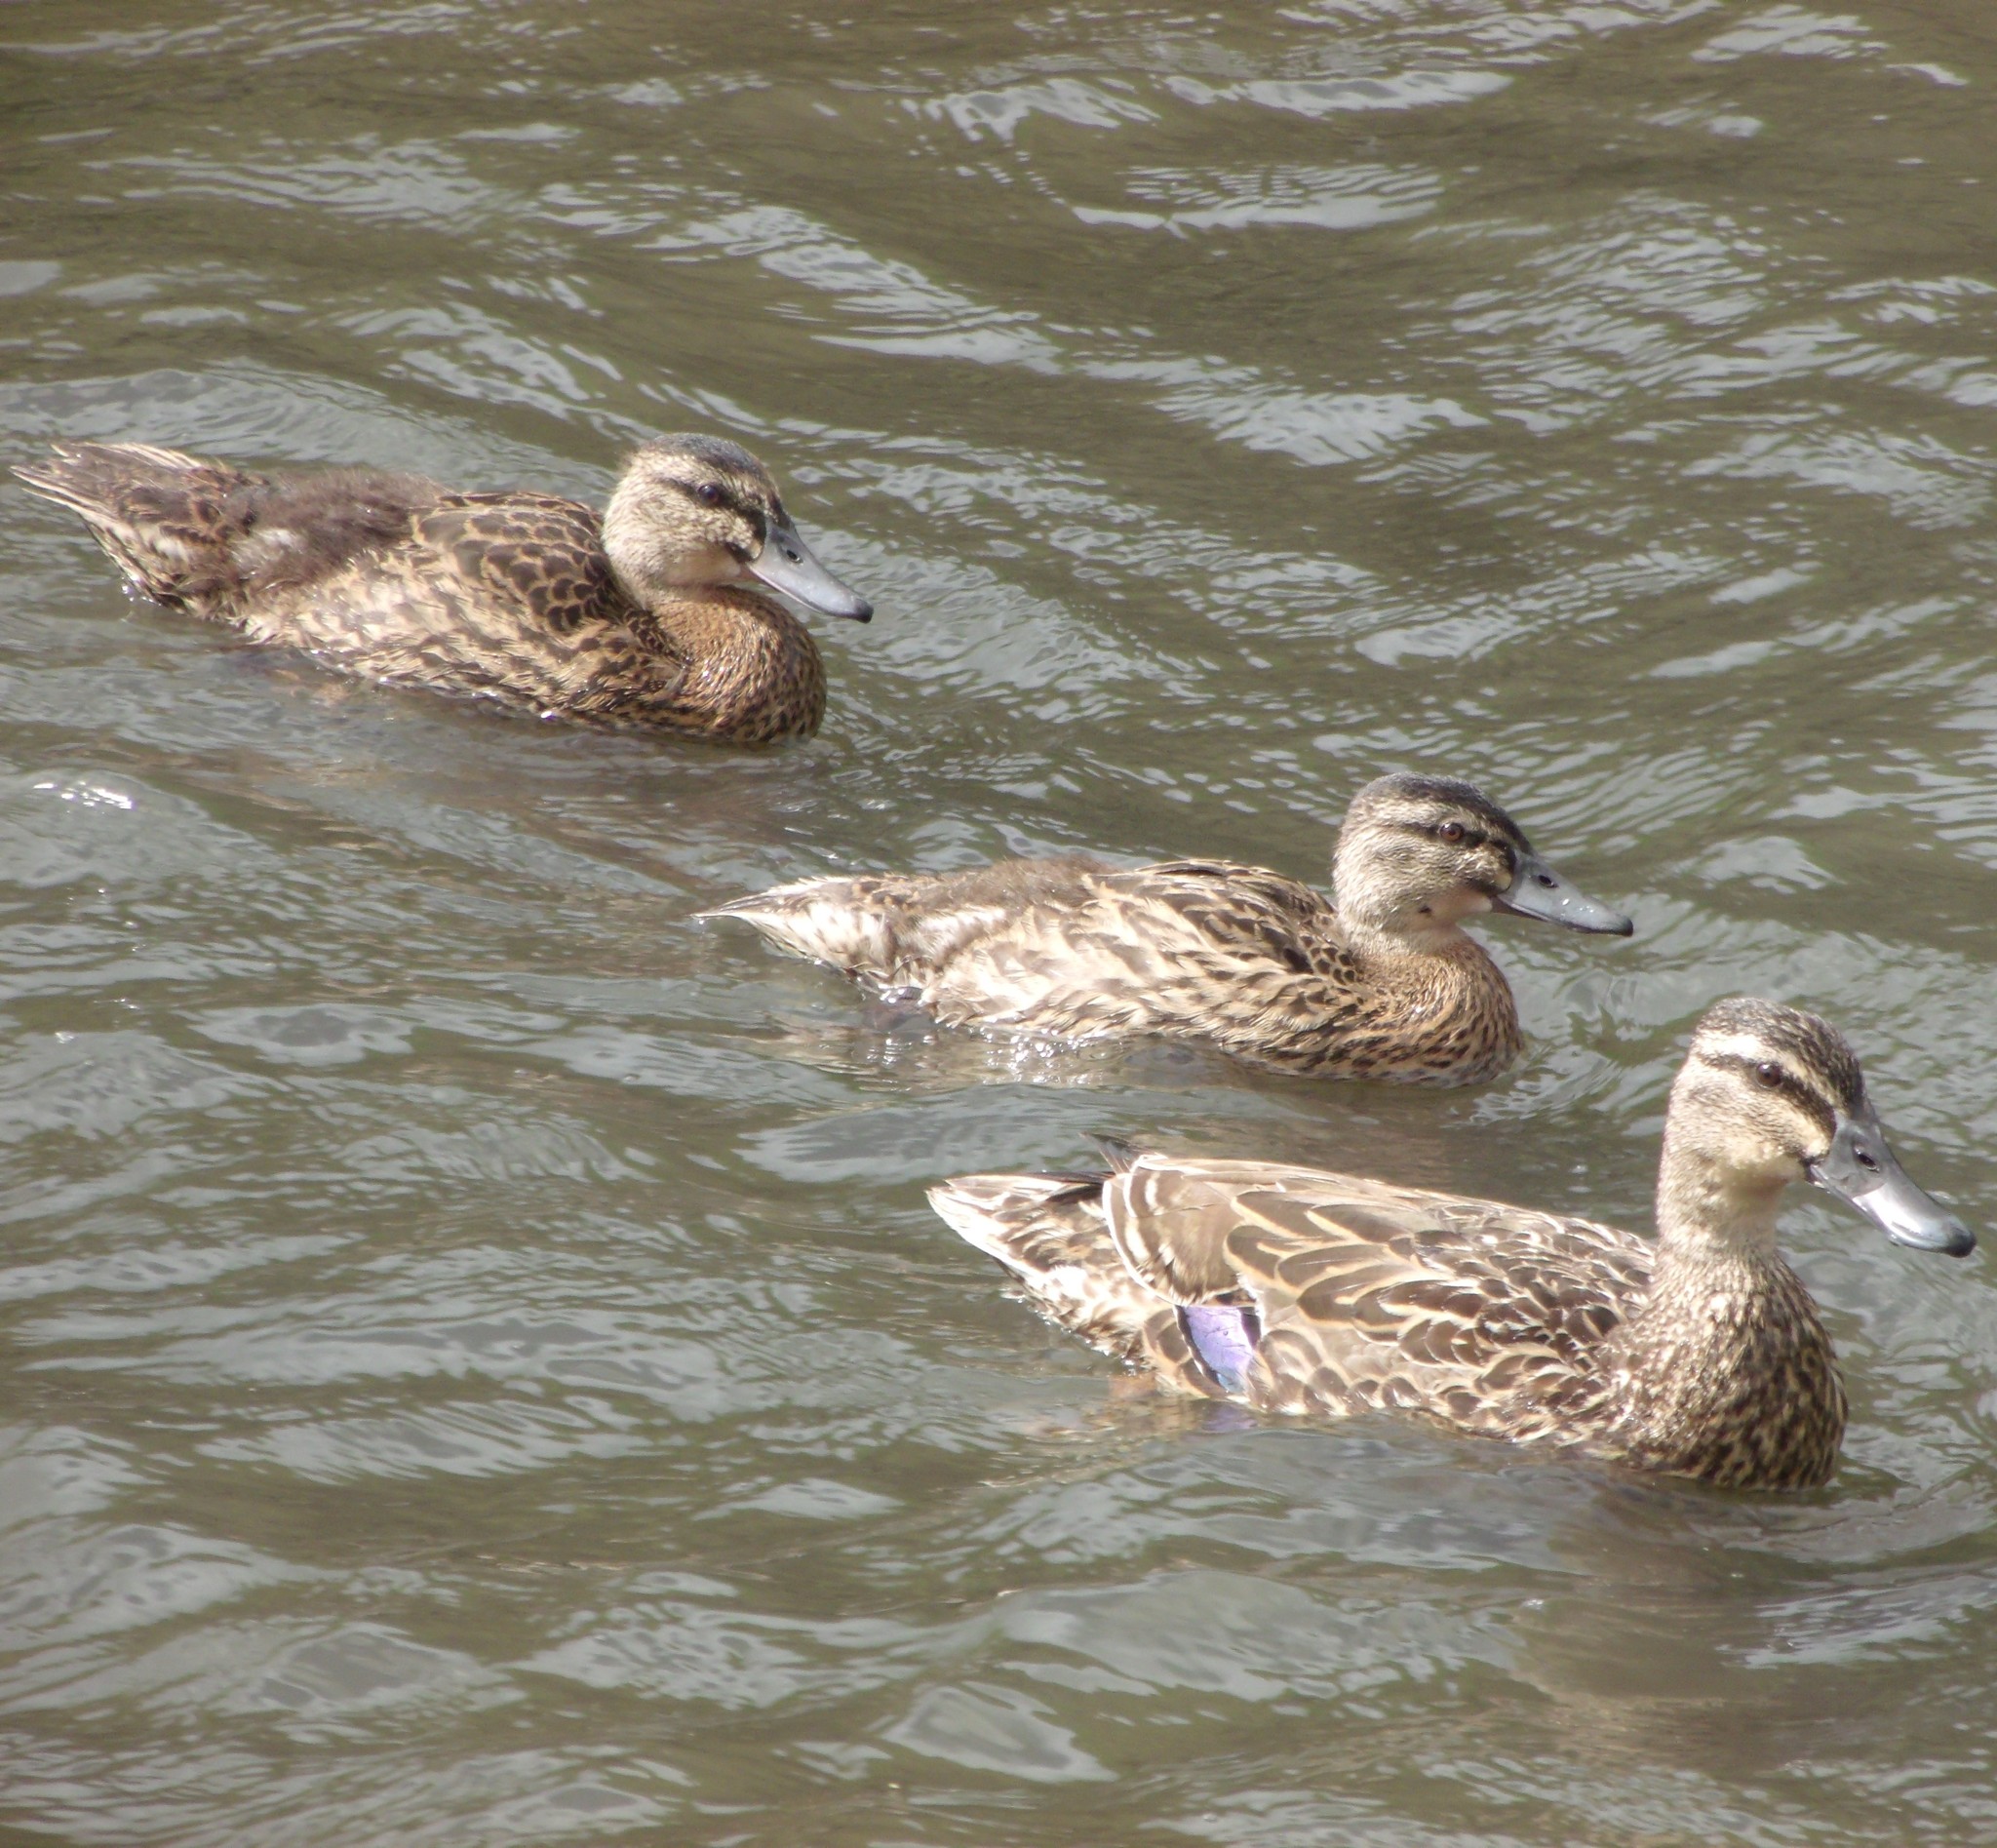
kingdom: Animalia
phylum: Chordata
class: Aves
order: Anseriformes
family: Anatidae
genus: Anas
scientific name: Anas
